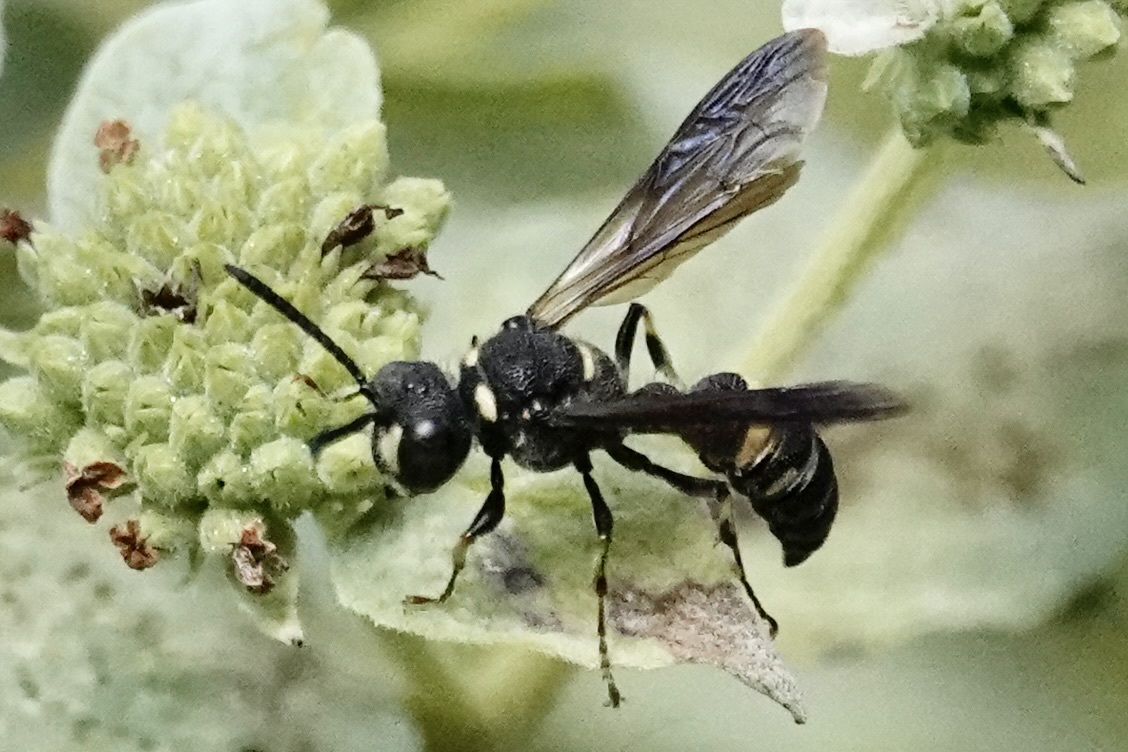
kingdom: Animalia
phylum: Arthropoda
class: Insecta
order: Hymenoptera
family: Crabronidae
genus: Cerceris
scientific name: Cerceris fumipennis
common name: Smokey-winged beetle bandit wasp
